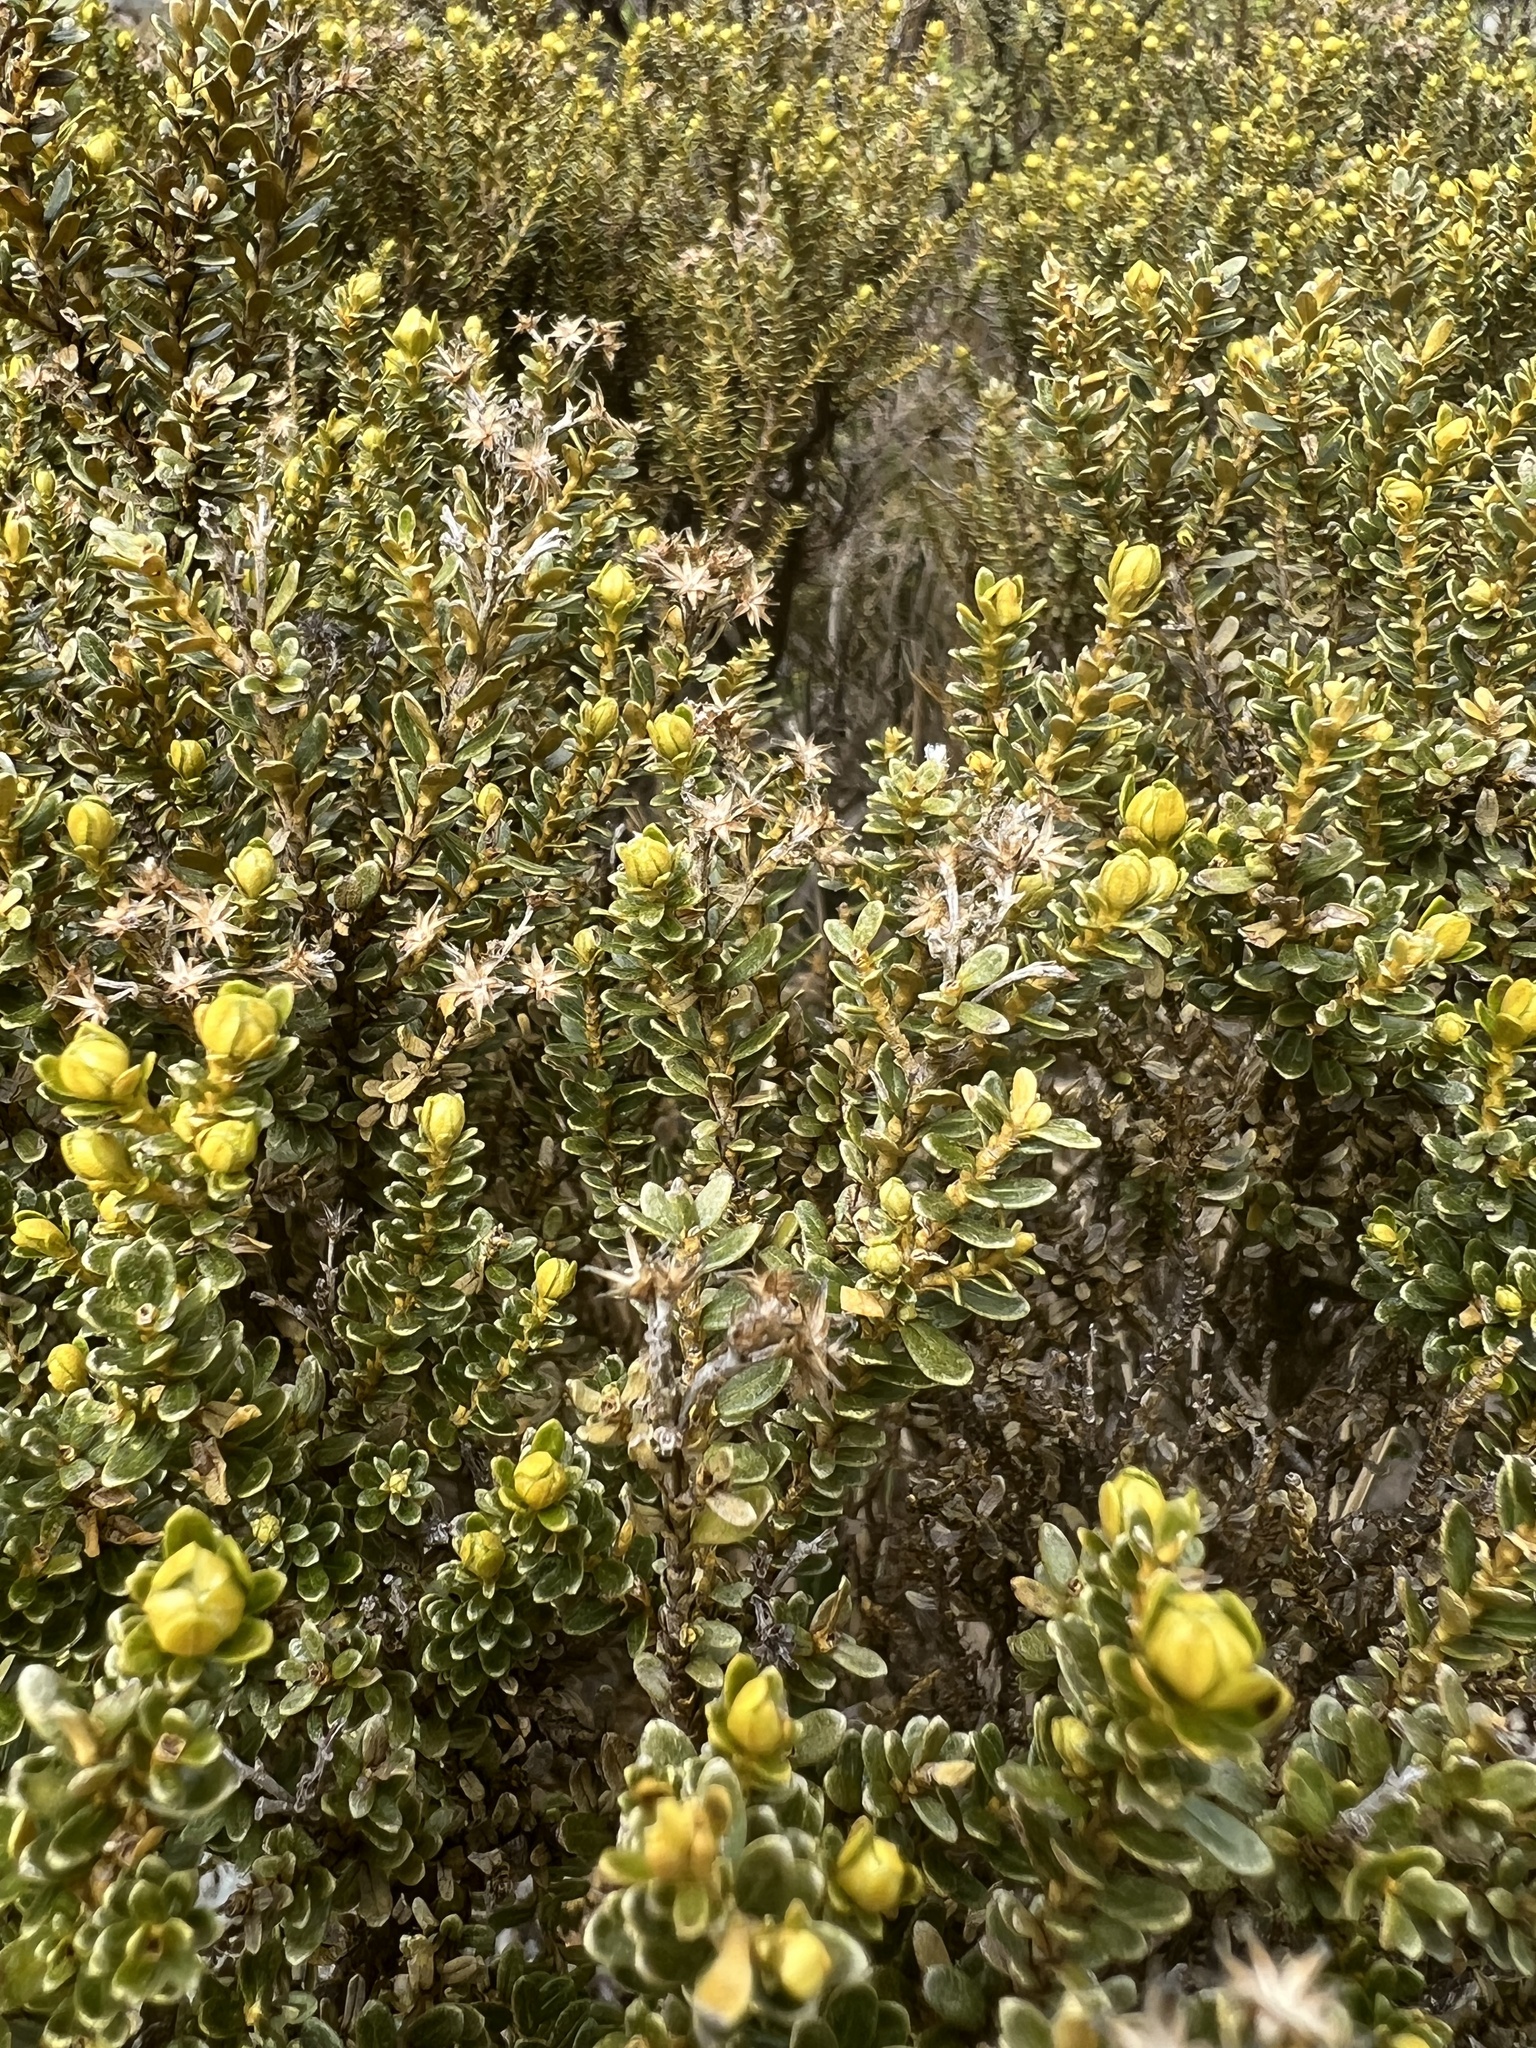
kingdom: Plantae
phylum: Tracheophyta
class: Magnoliopsida
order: Lamiales
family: Plantaginaceae
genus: Veronica
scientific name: Veronica odora
